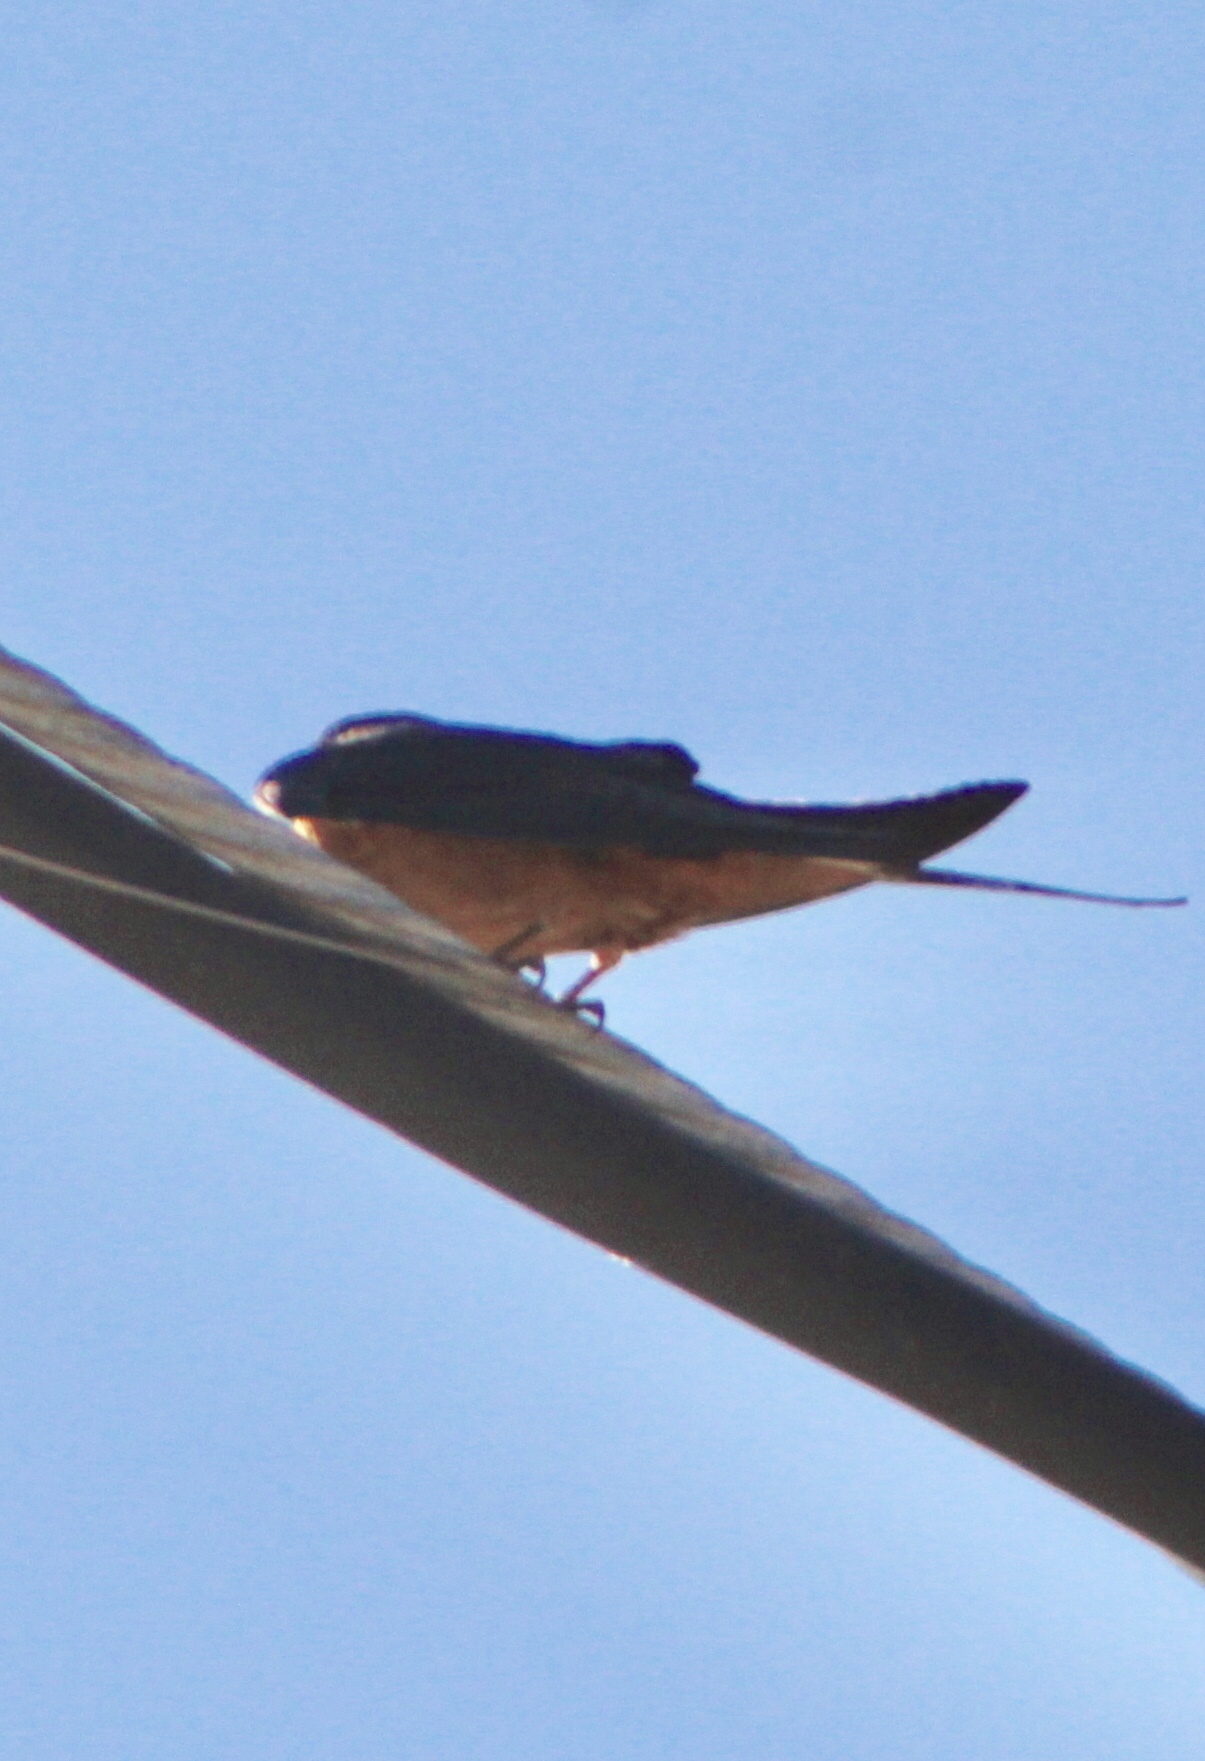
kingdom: Animalia
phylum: Chordata
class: Aves
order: Passeriformes
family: Hirundinidae
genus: Hirundo
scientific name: Hirundo rustica
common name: Barn swallow
